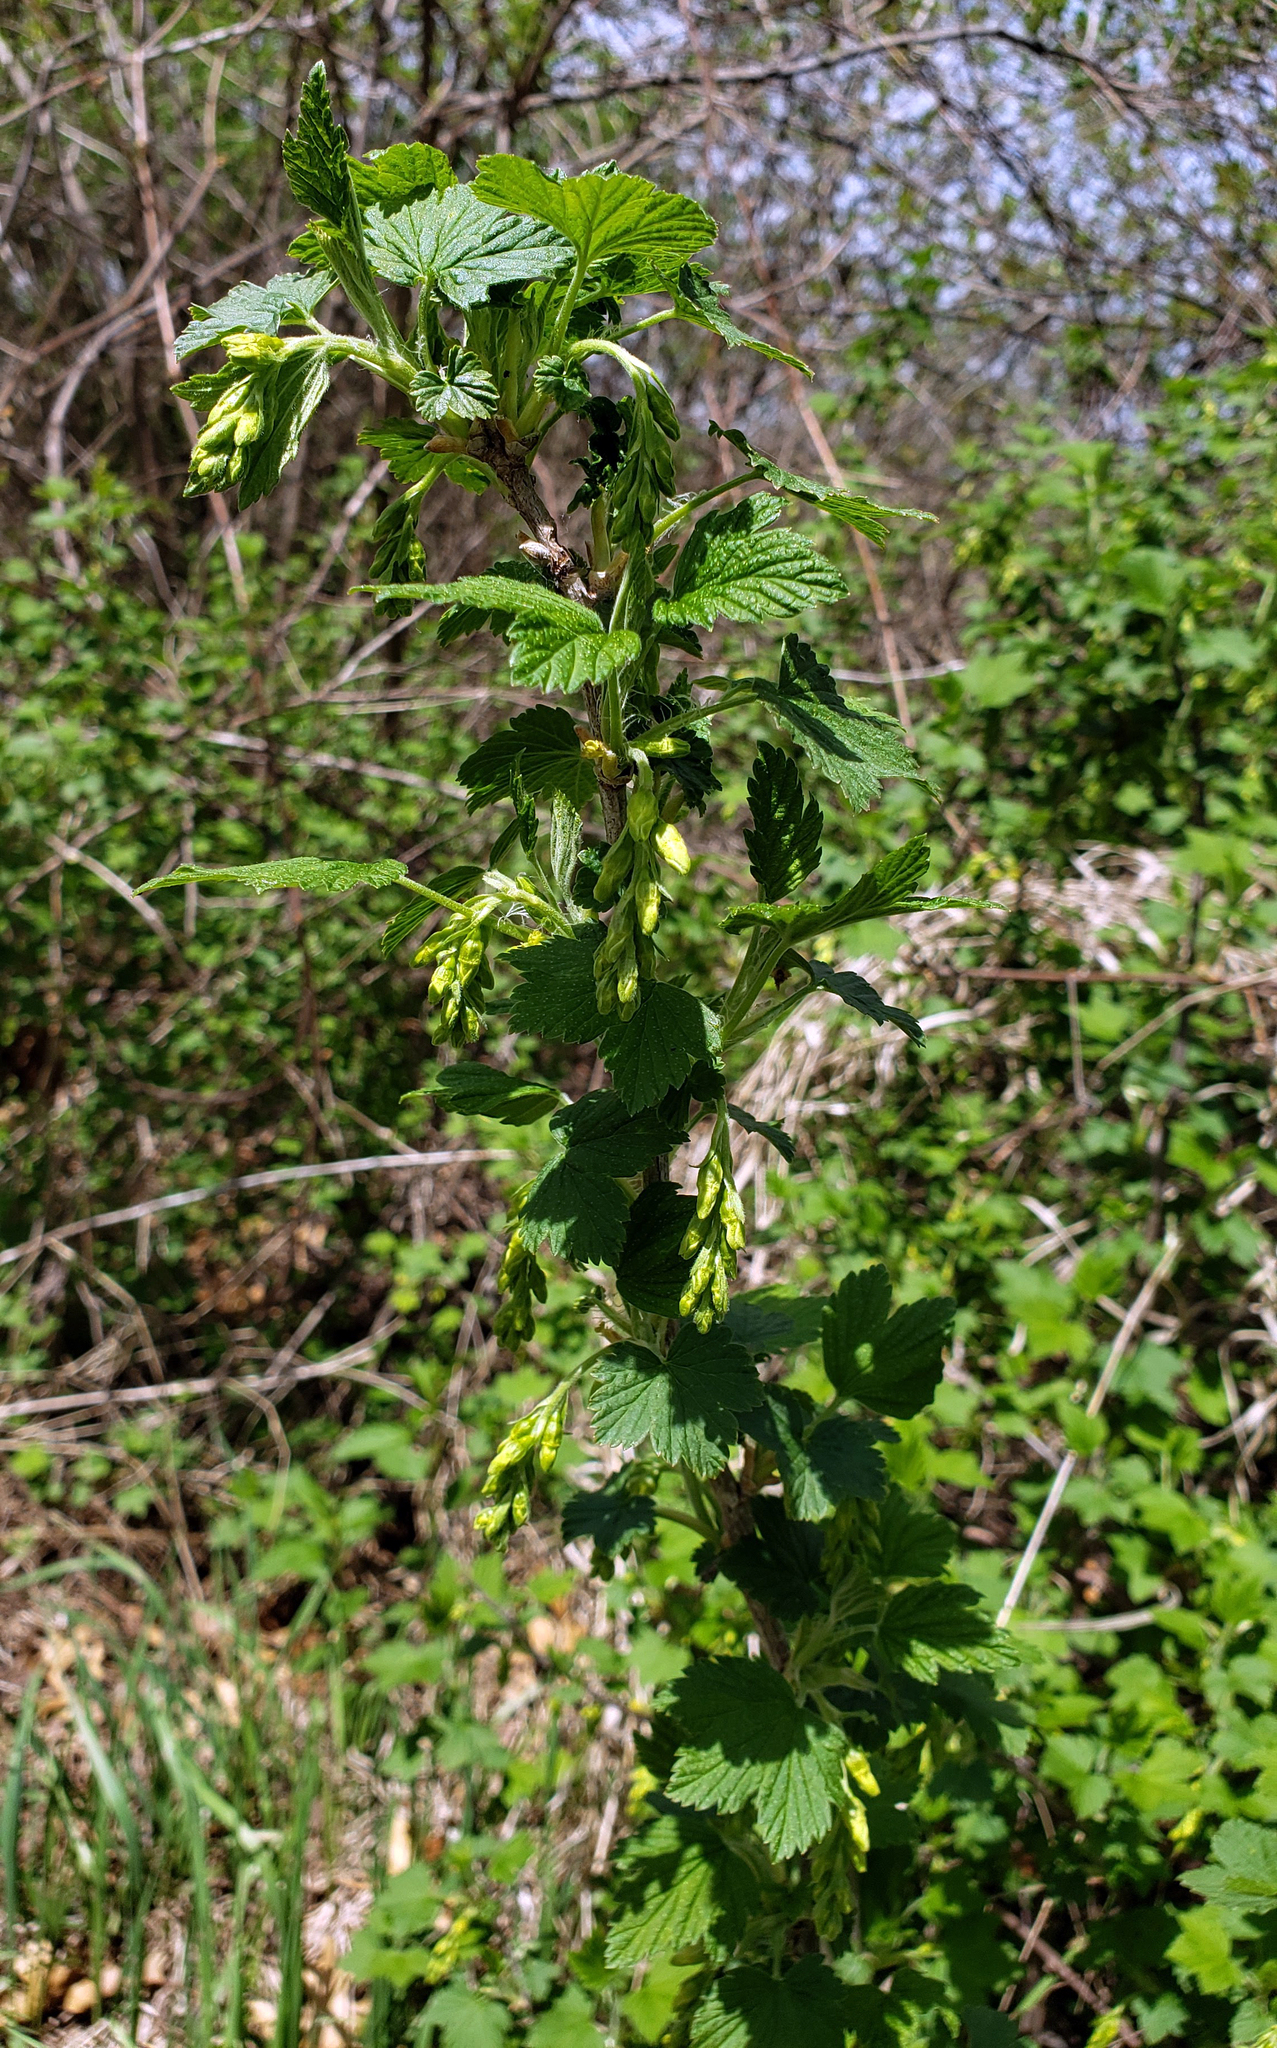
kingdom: Plantae
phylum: Tracheophyta
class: Magnoliopsida
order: Saxifragales
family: Grossulariaceae
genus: Ribes
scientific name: Ribes americanum
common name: American black currant
